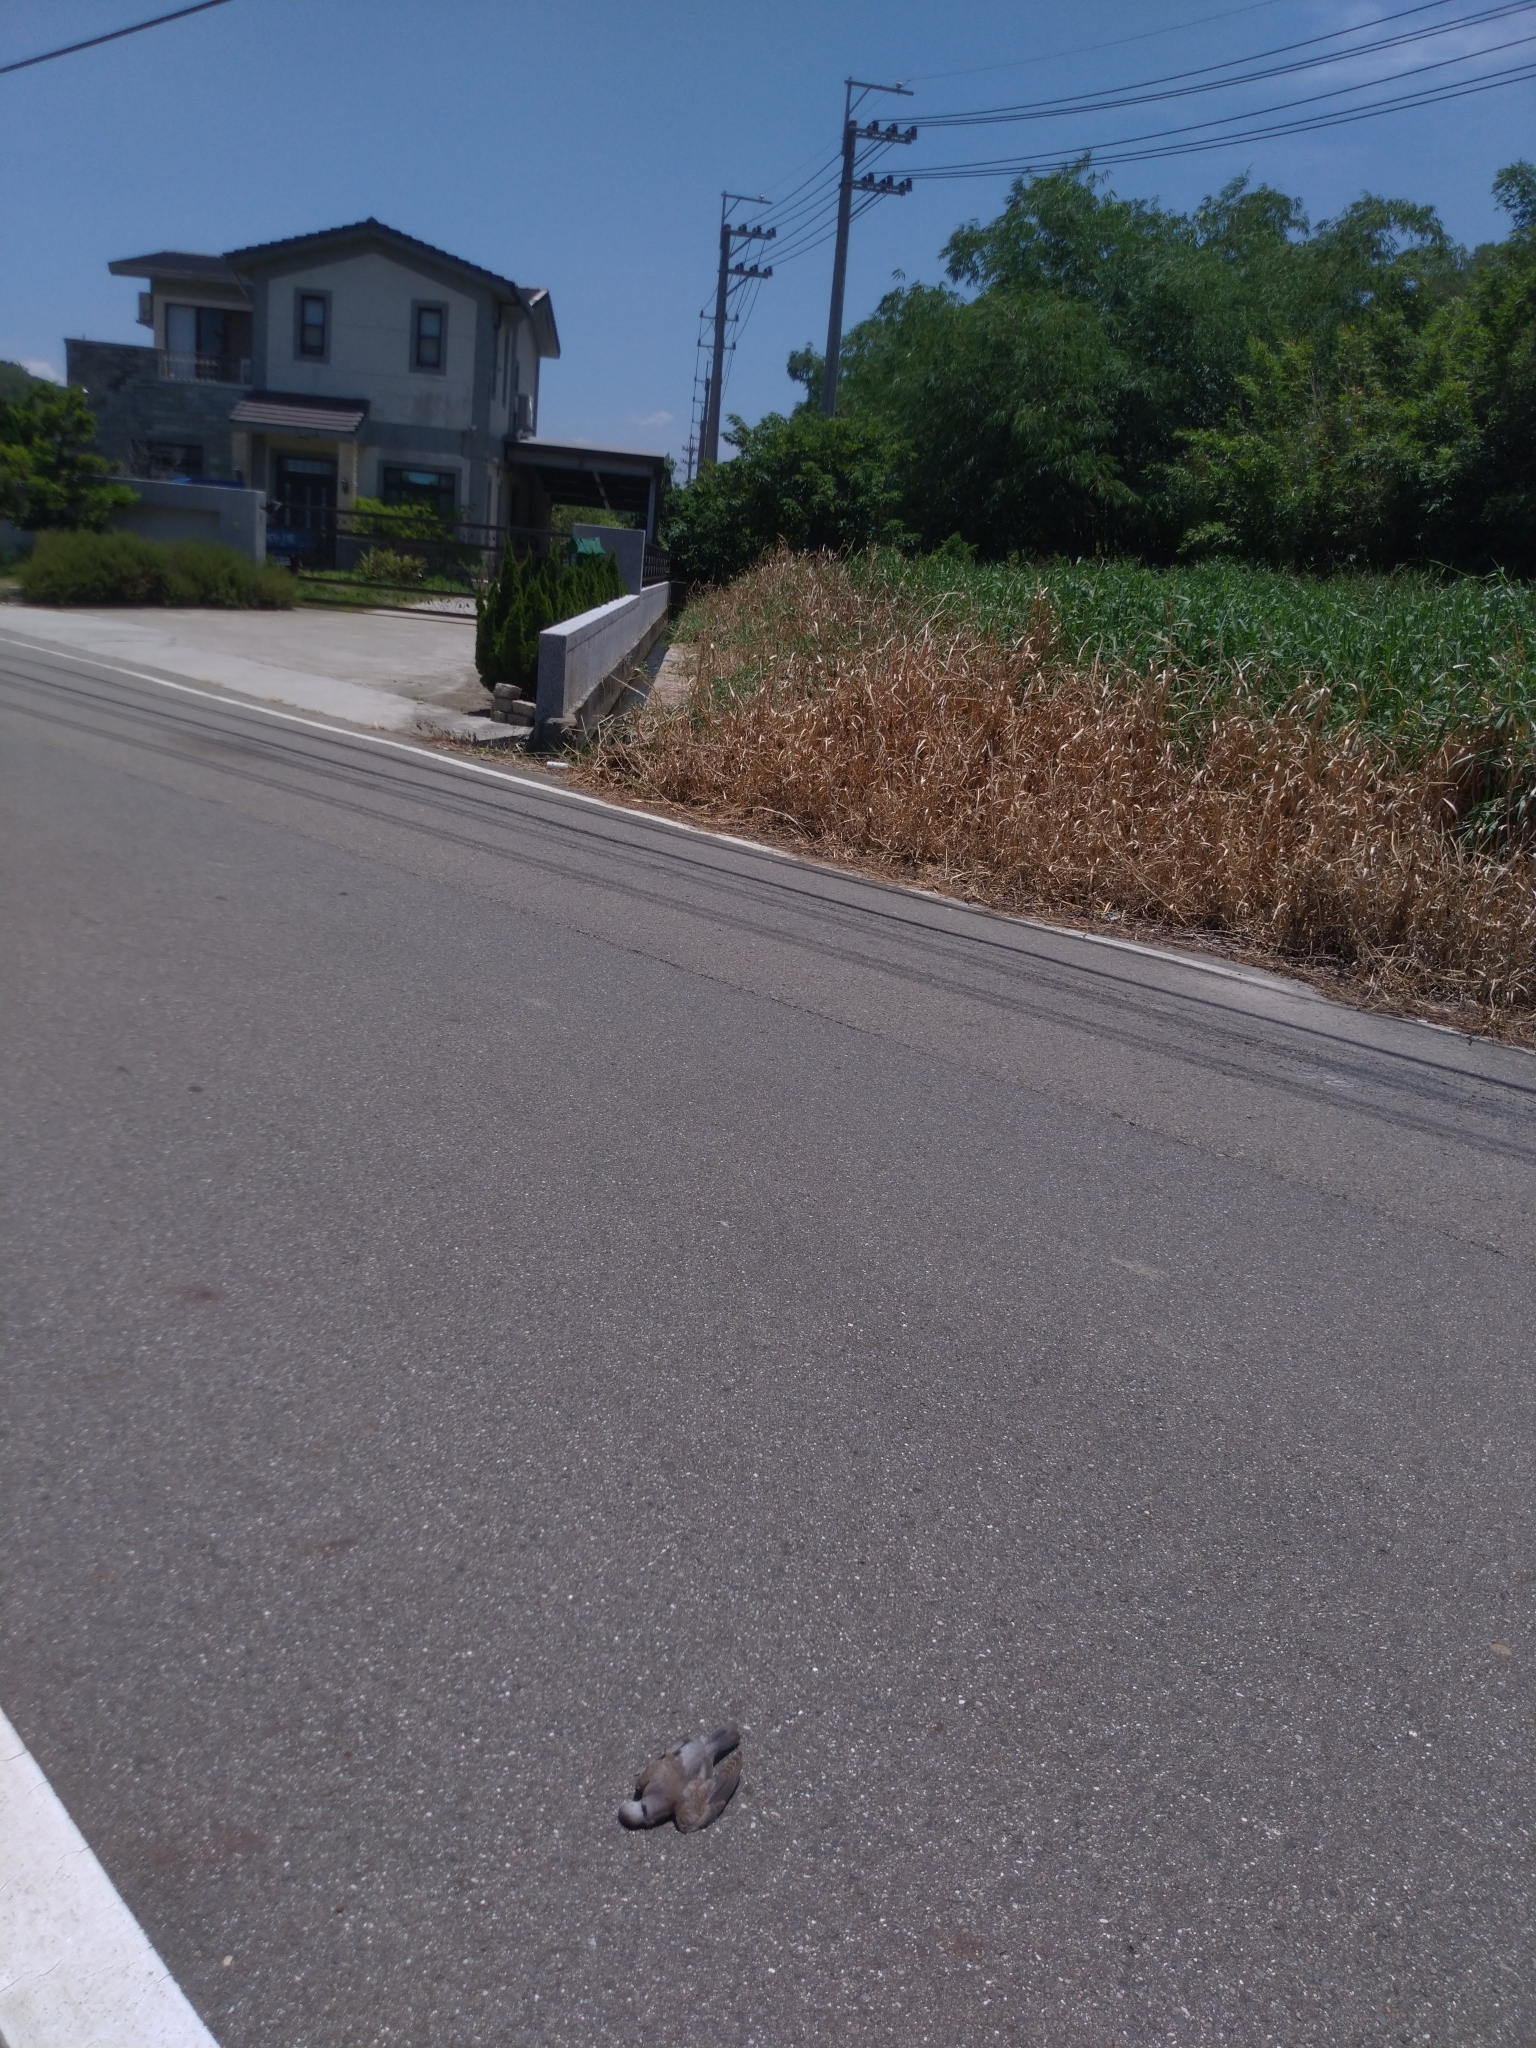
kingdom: Animalia
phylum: Chordata
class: Aves
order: Columbiformes
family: Columbidae
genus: Streptopelia
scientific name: Streptopelia tranquebarica
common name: Red turtle dove
